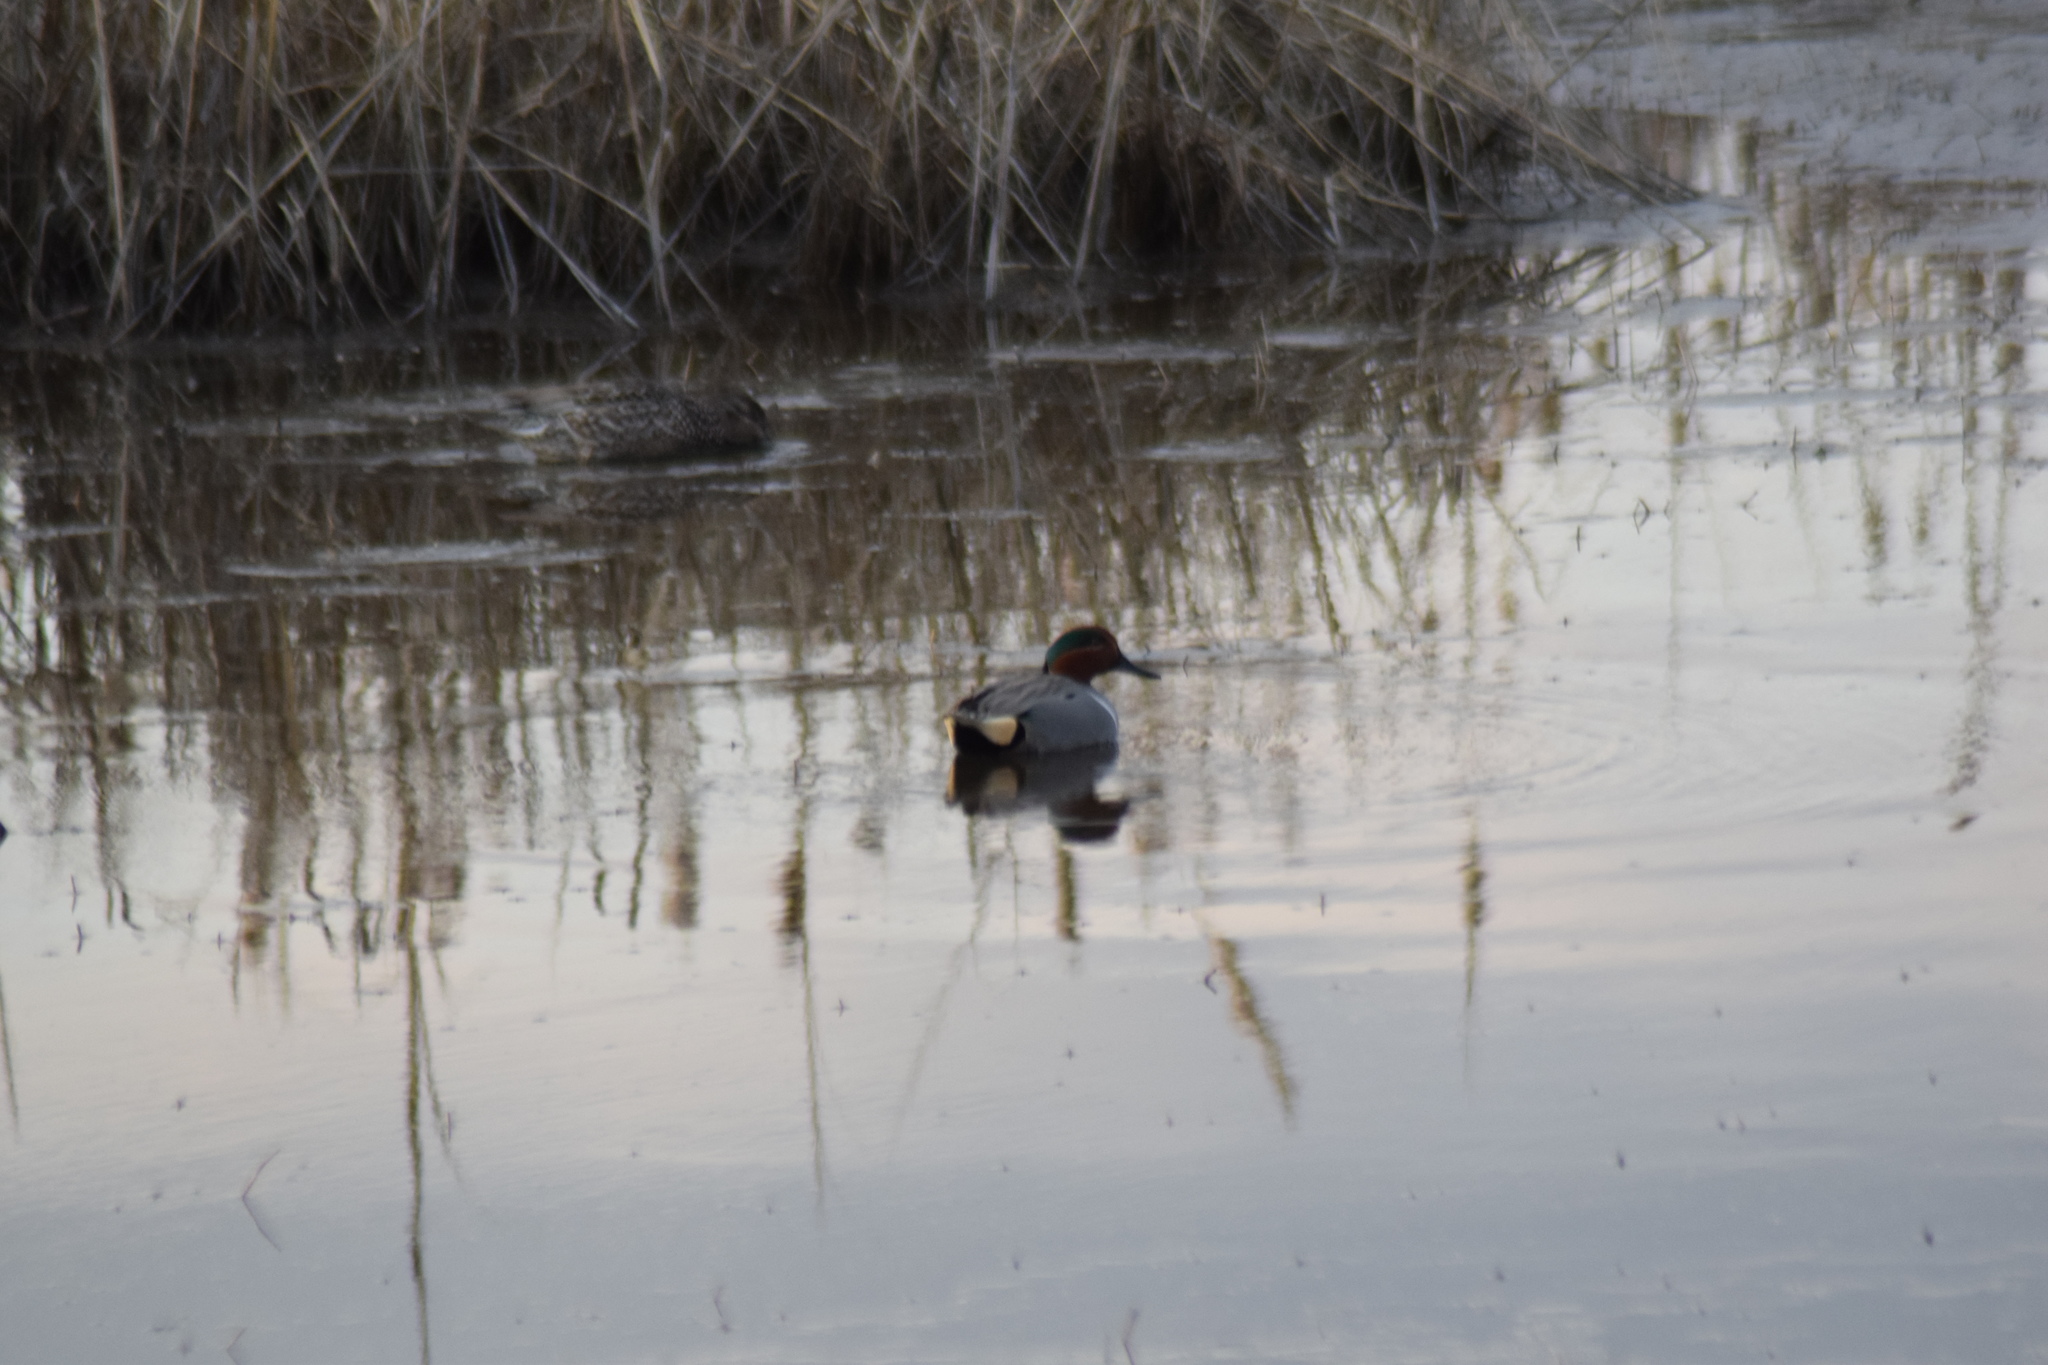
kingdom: Animalia
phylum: Chordata
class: Aves
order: Anseriformes
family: Anatidae
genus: Anas
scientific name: Anas crecca
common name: Eurasian teal
